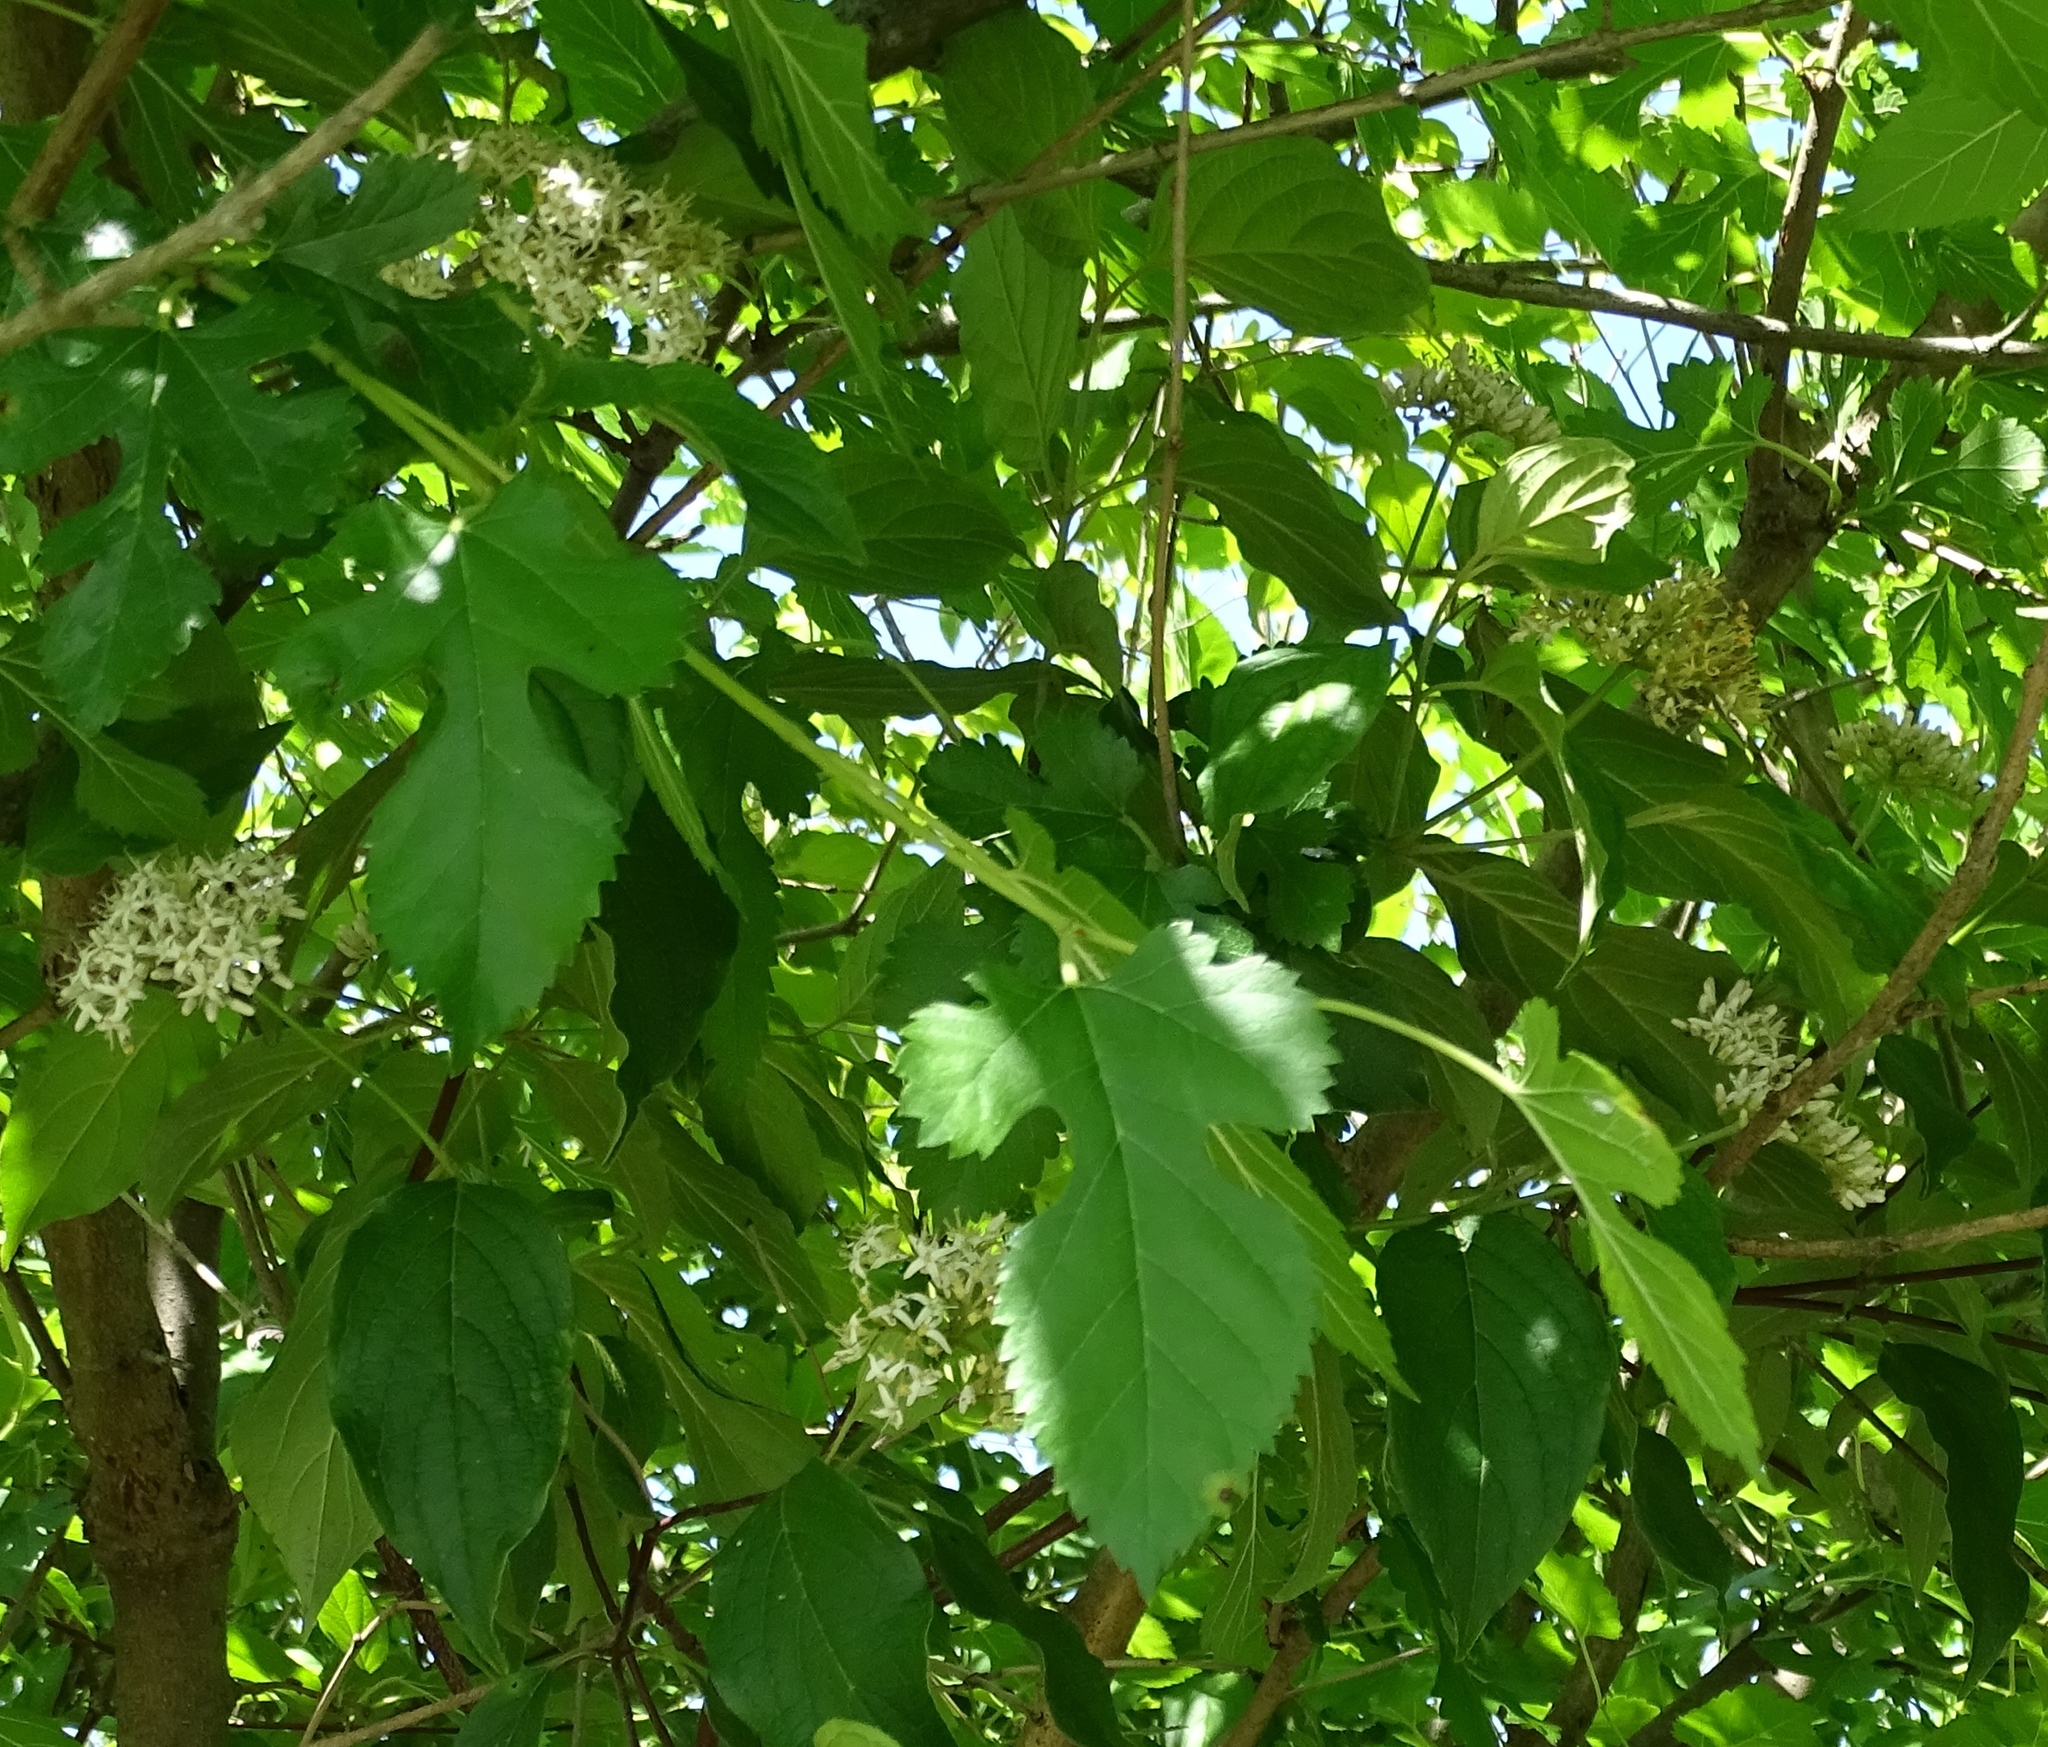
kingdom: Plantae
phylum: Tracheophyta
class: Magnoliopsida
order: Rosales
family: Moraceae
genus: Morus
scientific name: Morus alba
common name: White mulberry
